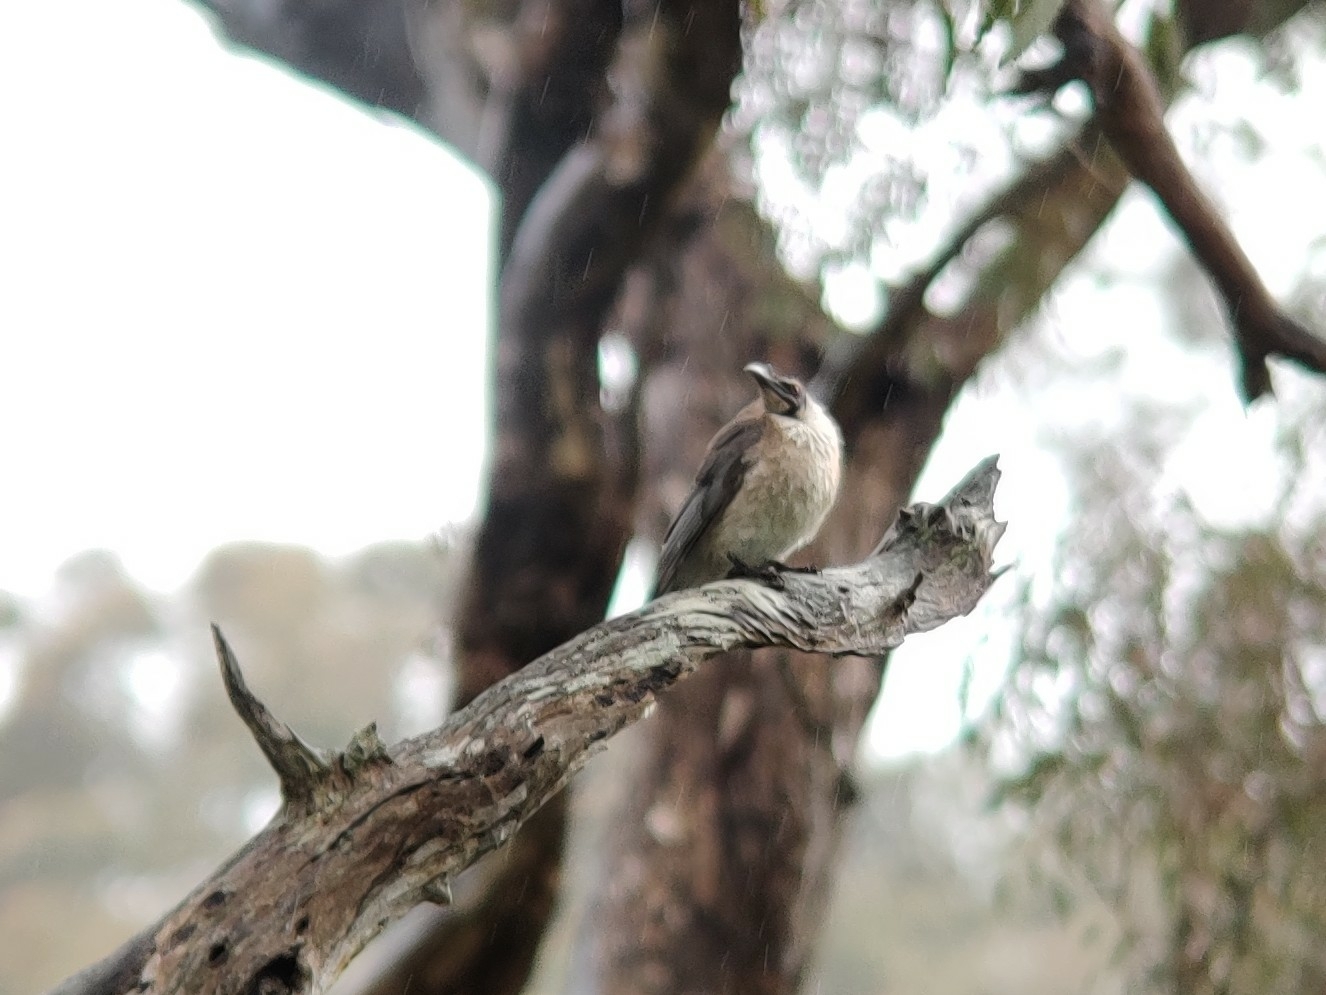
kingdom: Animalia
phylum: Chordata
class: Aves
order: Passeriformes
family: Meliphagidae
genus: Philemon
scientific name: Philemon corniculatus
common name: Noisy friarbird
